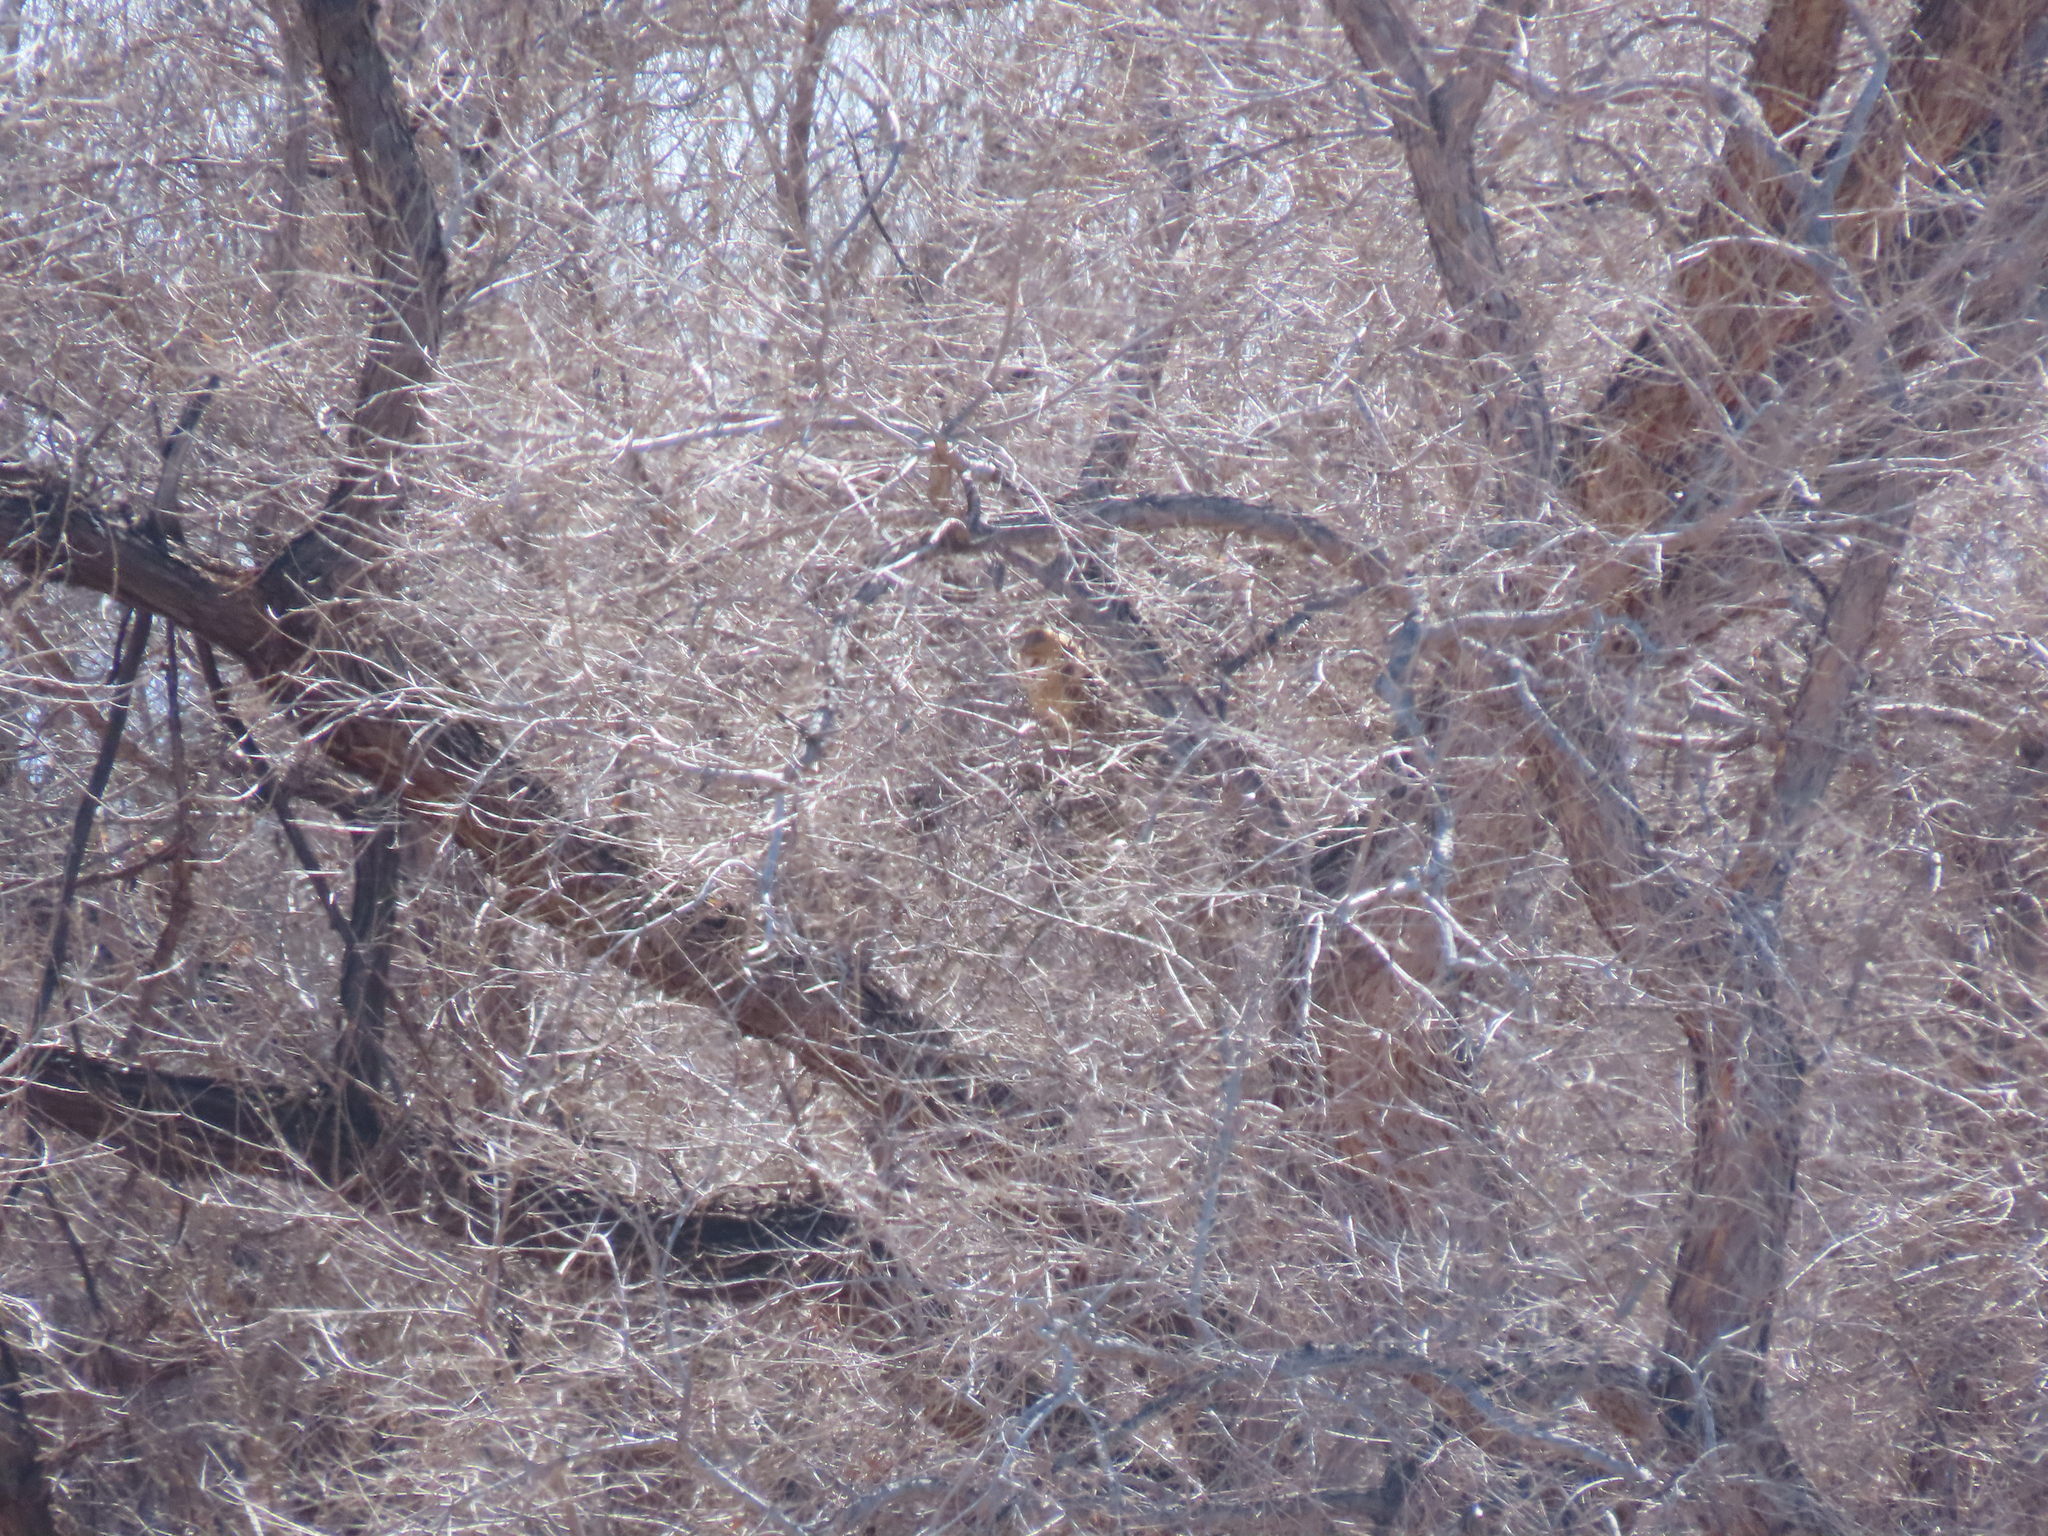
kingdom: Animalia
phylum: Chordata
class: Aves
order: Strigiformes
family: Tytonidae
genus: Tyto
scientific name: Tyto alba
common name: Barn owl
